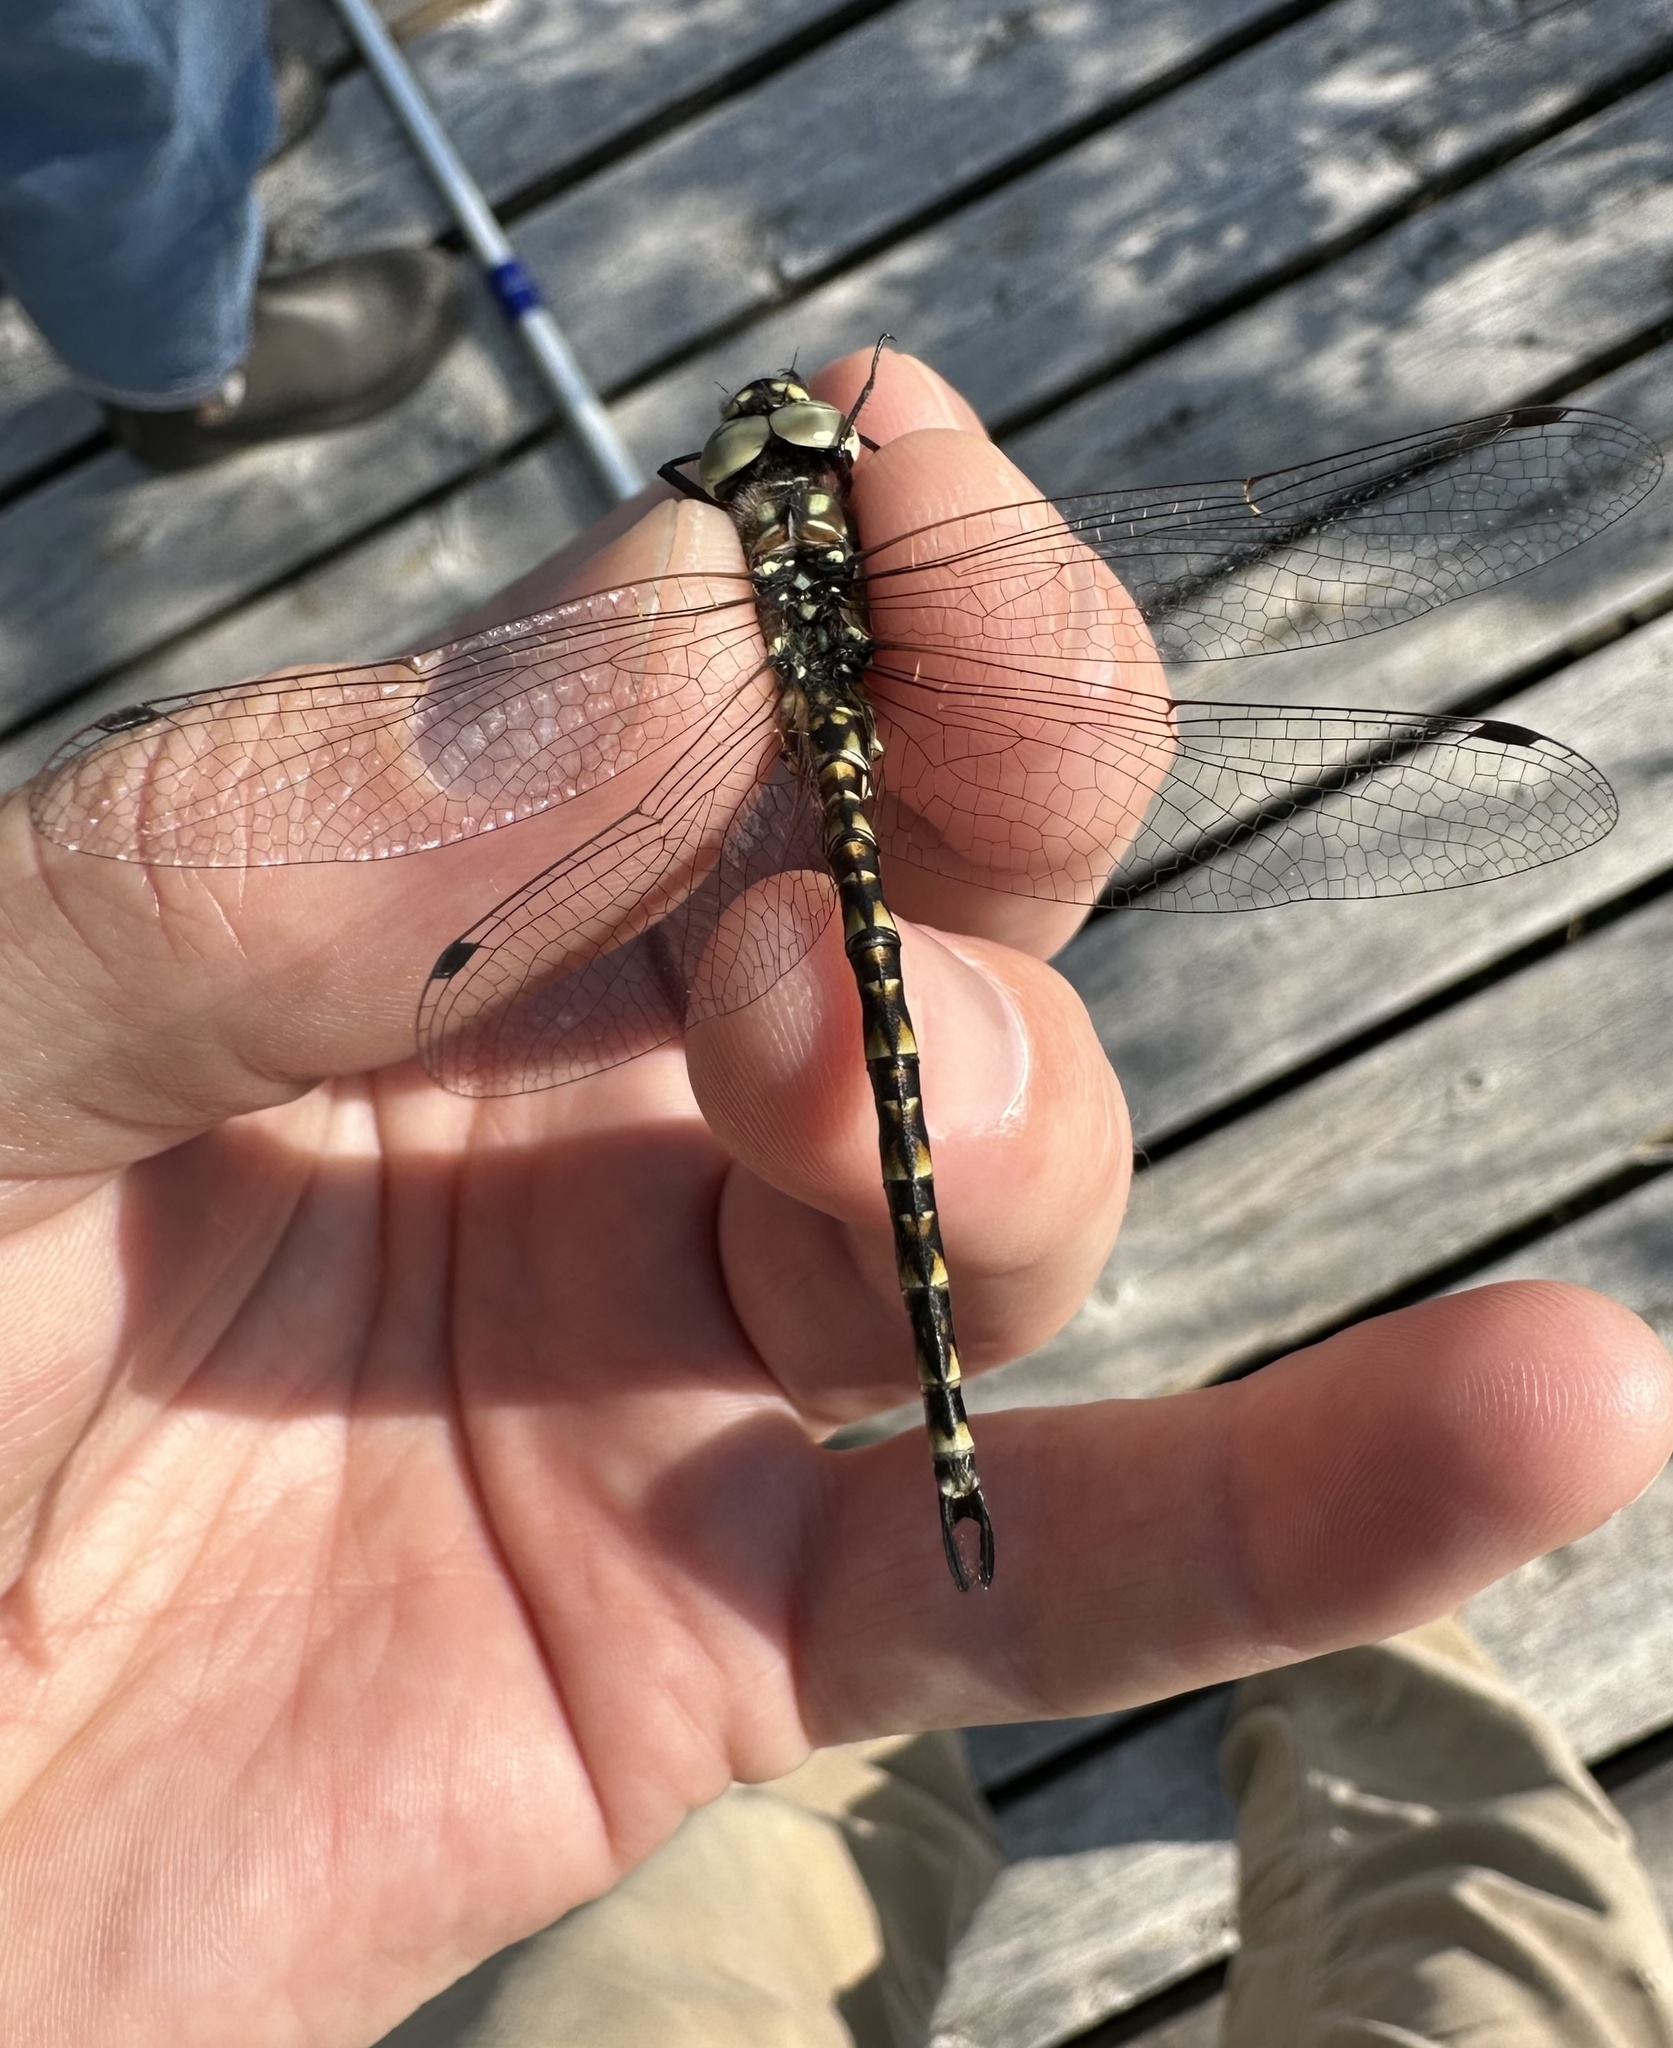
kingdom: Animalia
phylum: Arthropoda
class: Insecta
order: Odonata
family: Aeshnidae
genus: Gomphaeschna
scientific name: Gomphaeschna furcillata
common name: Harlequin darner
